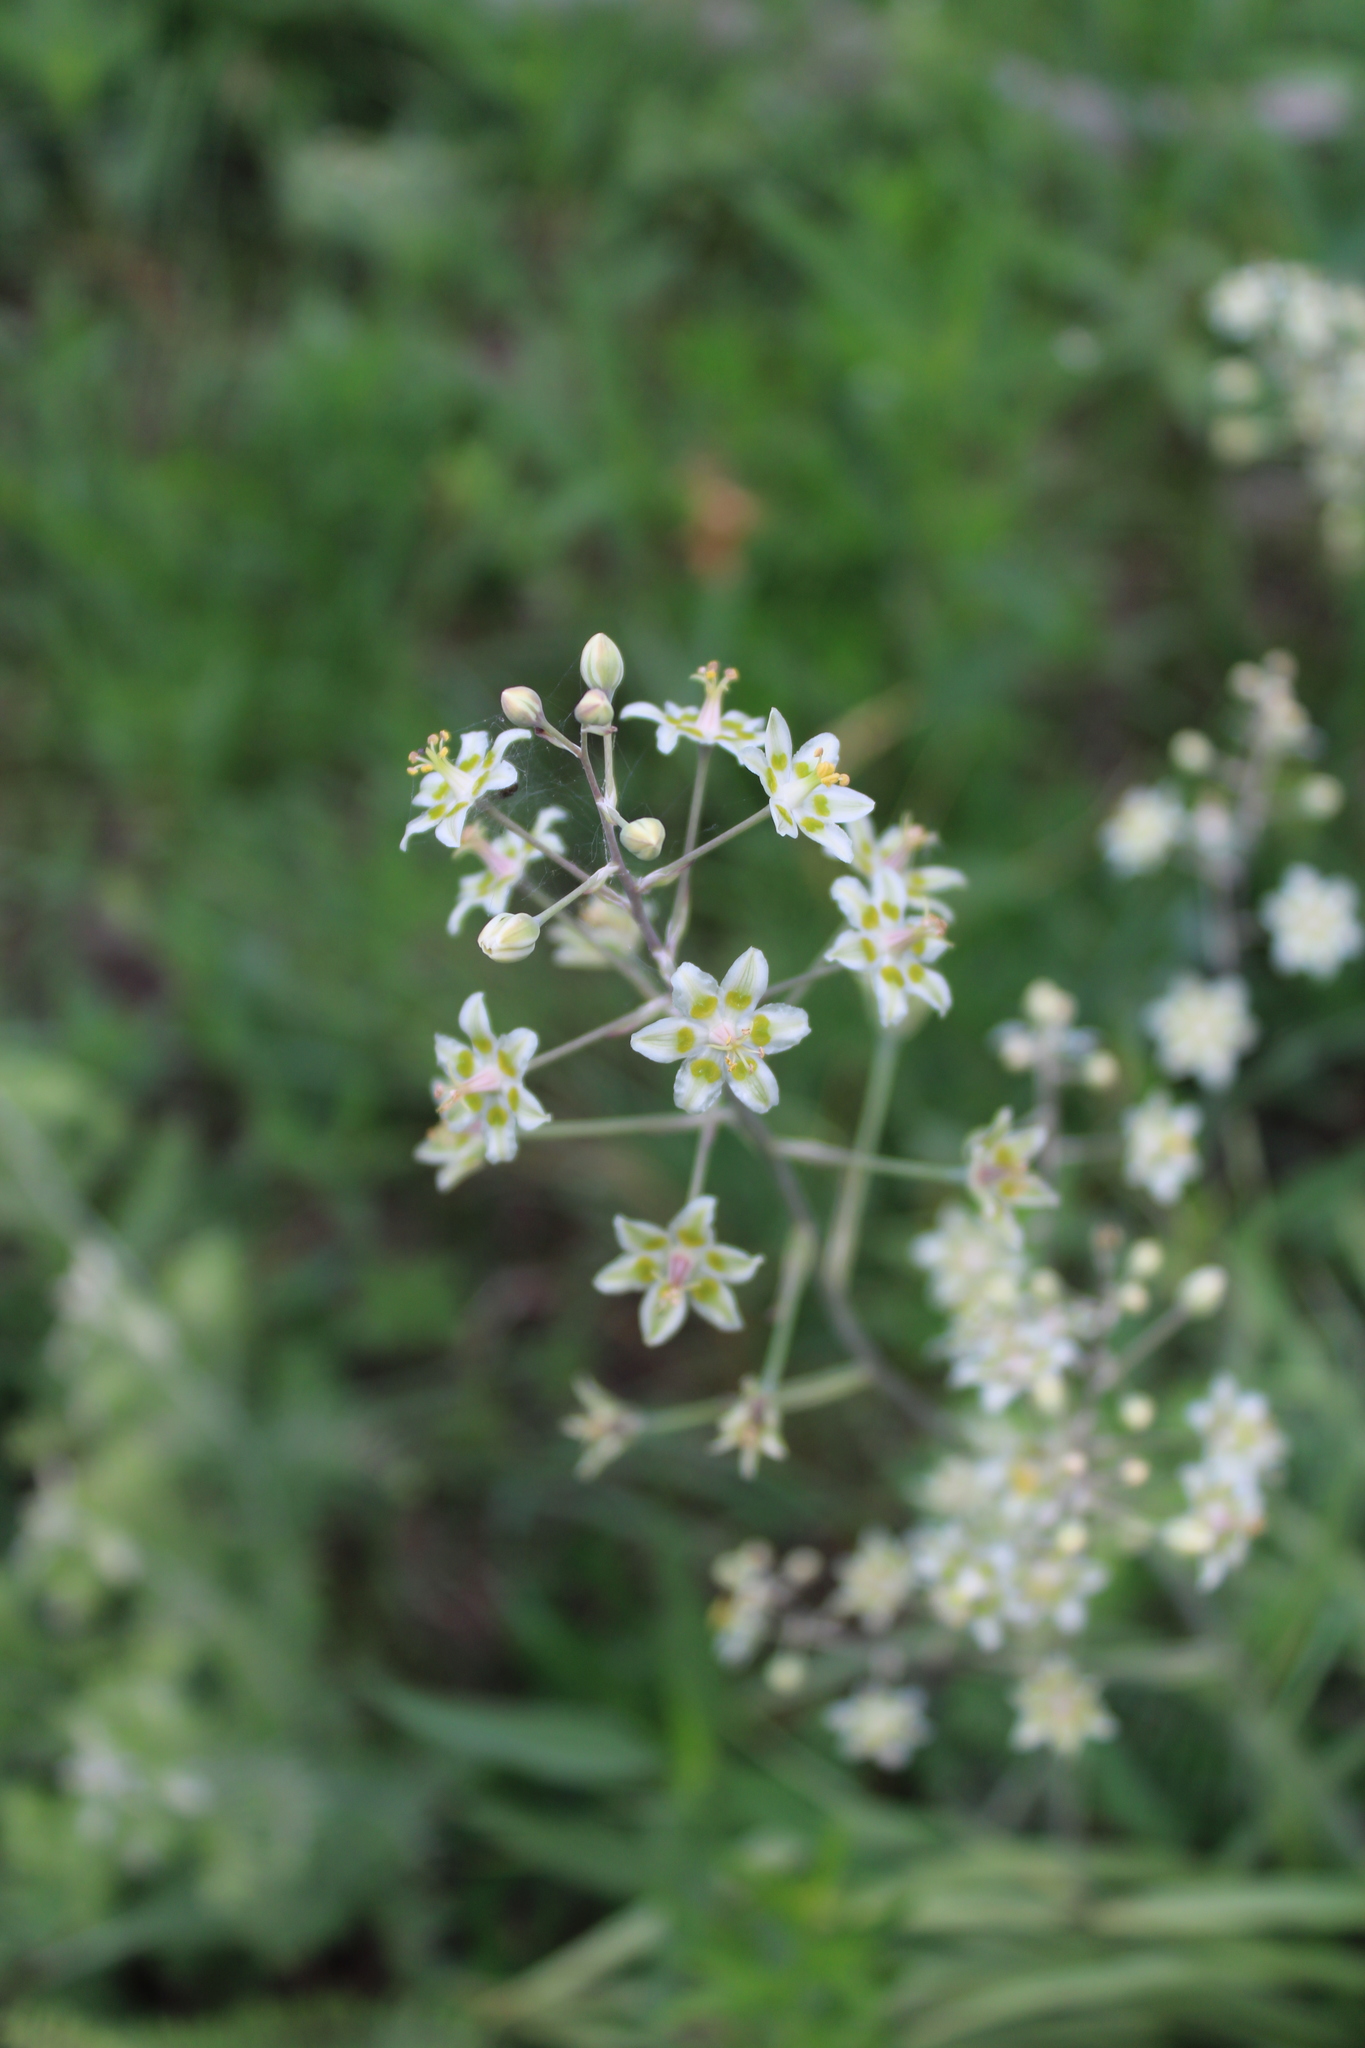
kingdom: Plantae
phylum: Tracheophyta
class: Liliopsida
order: Liliales
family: Melanthiaceae
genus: Anticlea
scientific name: Anticlea elegans
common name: Mountain death camas
